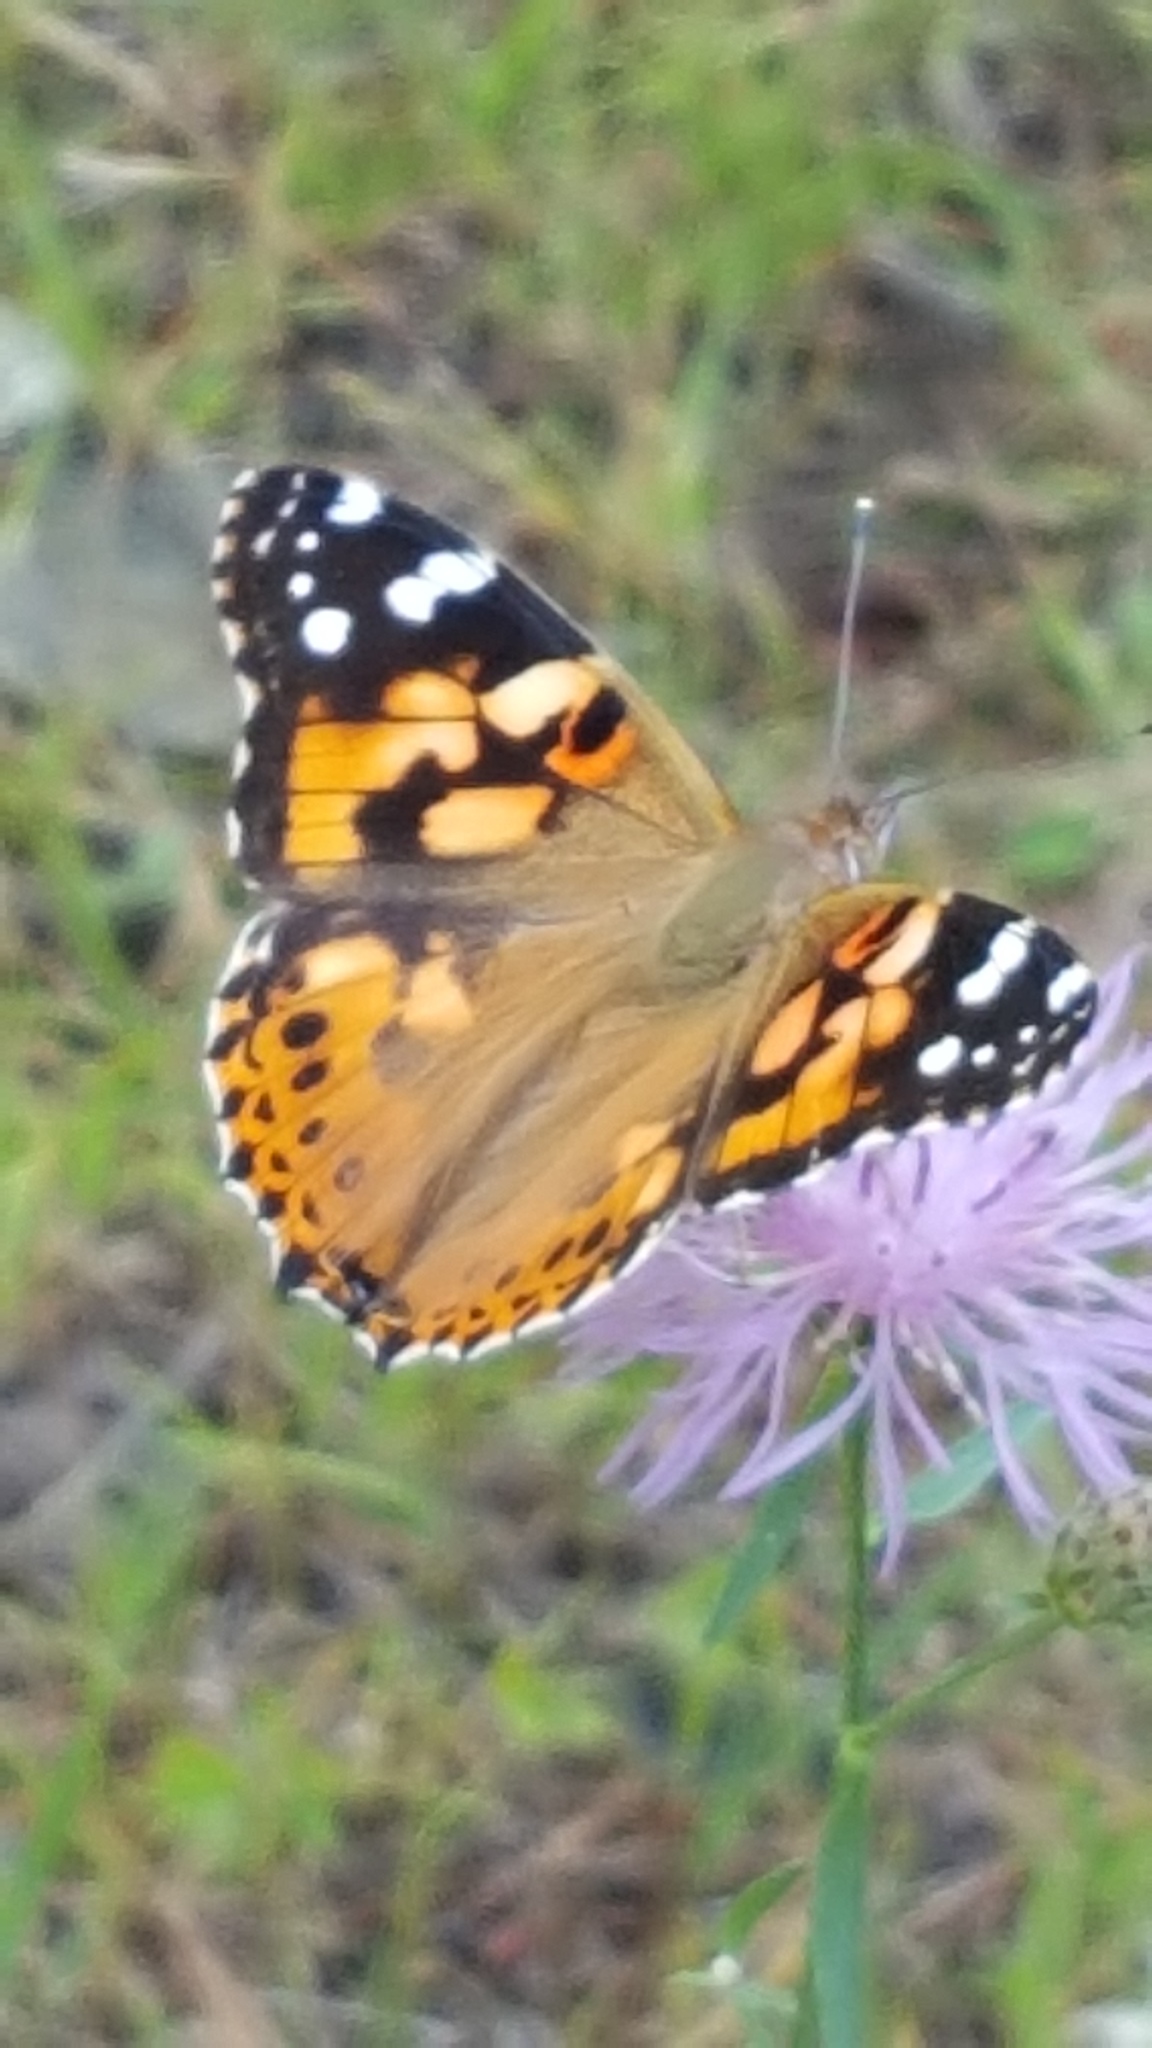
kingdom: Animalia
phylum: Arthropoda
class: Insecta
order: Lepidoptera
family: Nymphalidae
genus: Vanessa
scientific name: Vanessa cardui
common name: Painted lady
